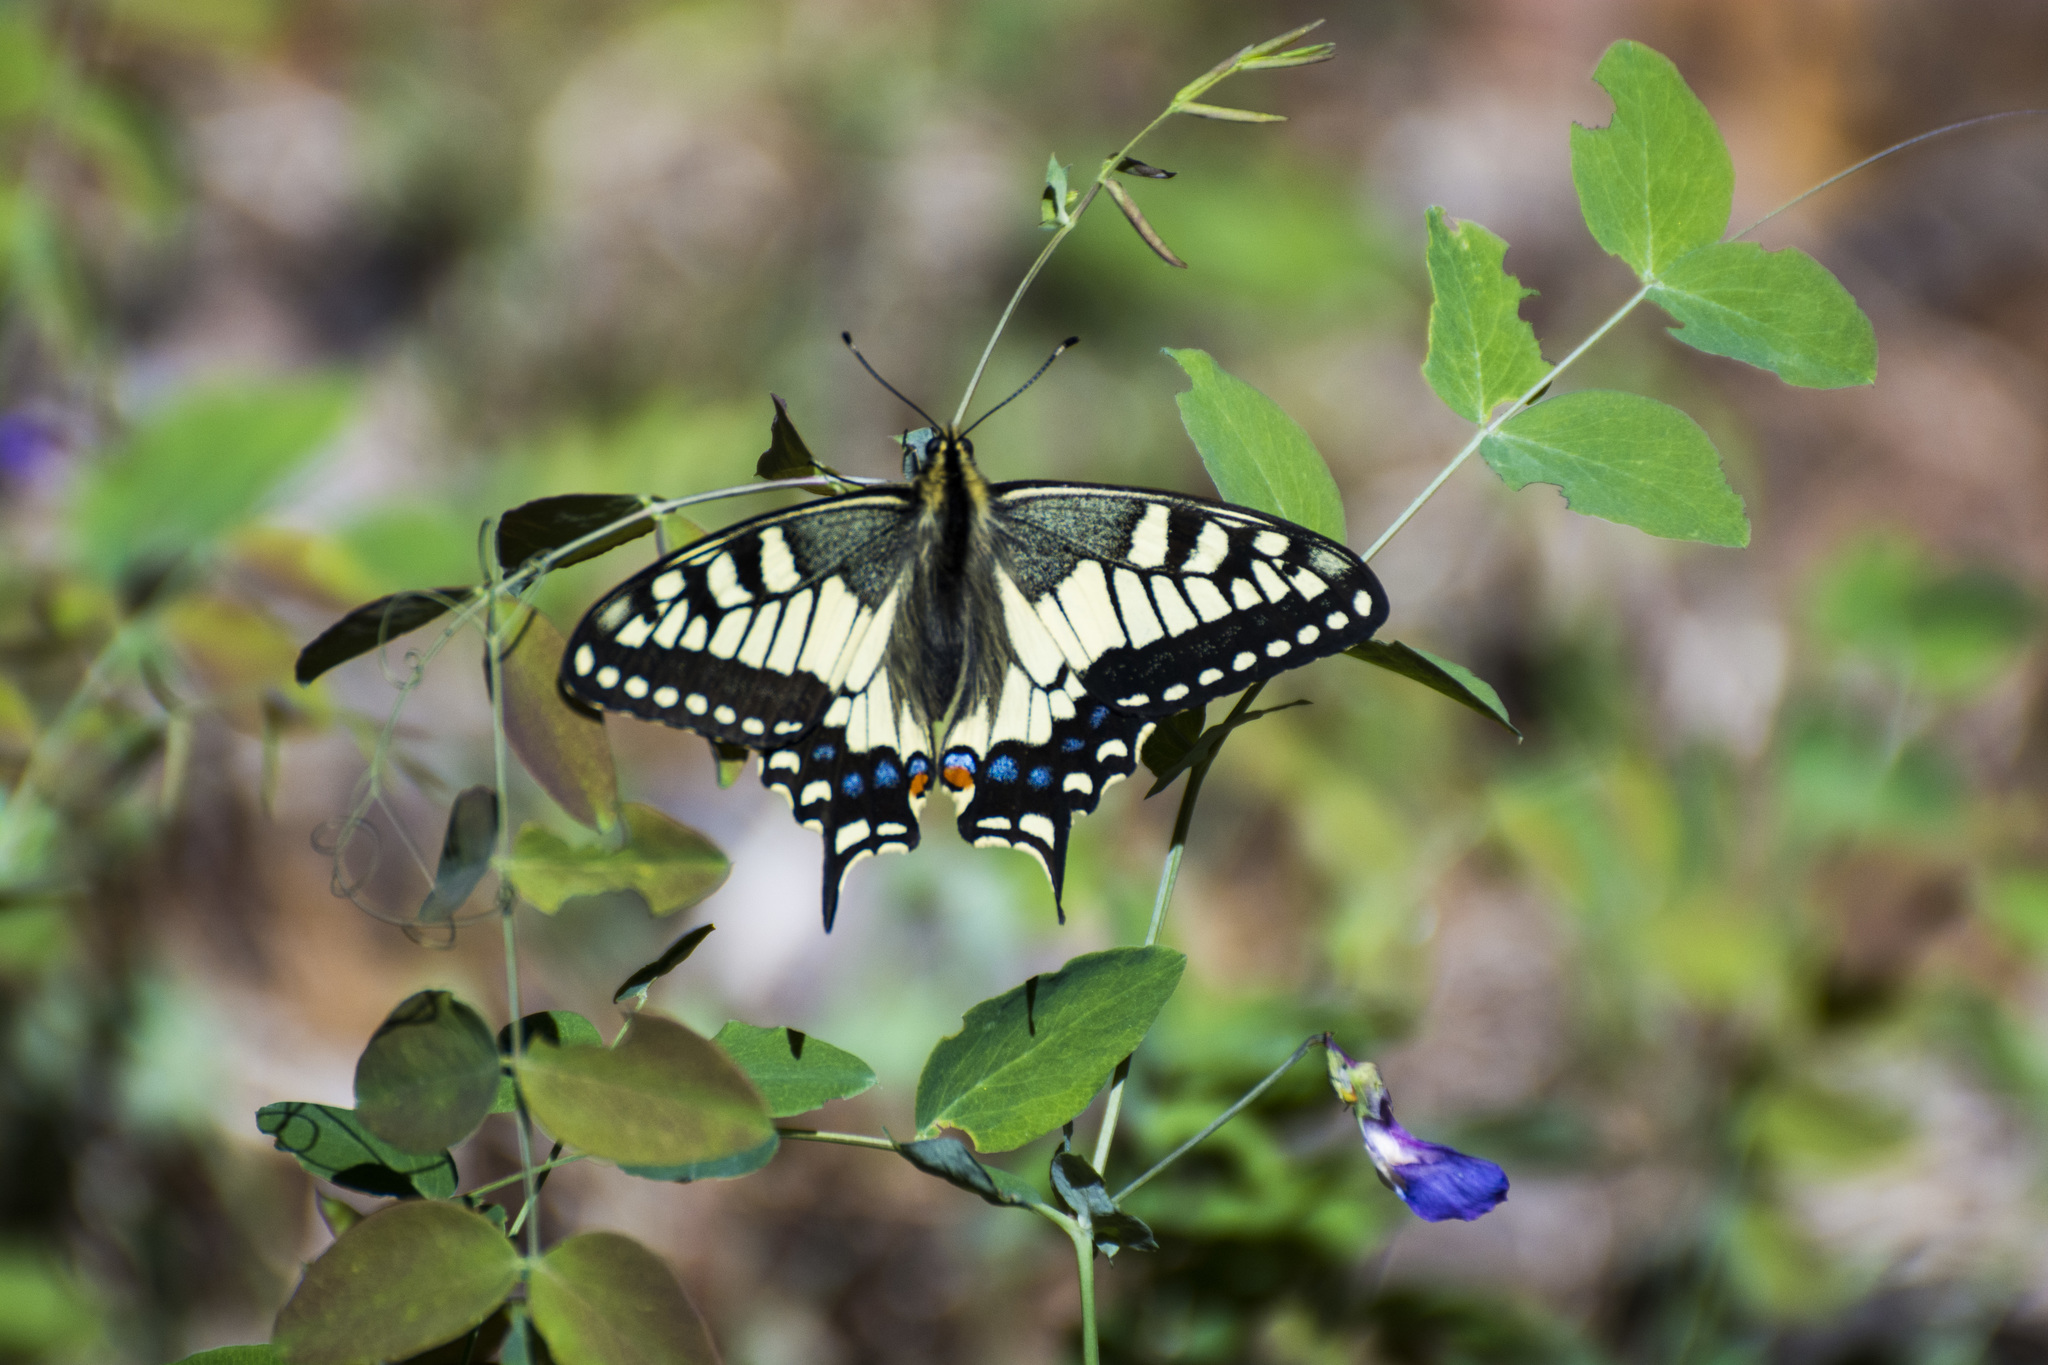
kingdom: Animalia
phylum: Arthropoda
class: Insecta
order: Lepidoptera
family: Papilionidae
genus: Papilio
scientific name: Papilio machaon
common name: Swallowtail
